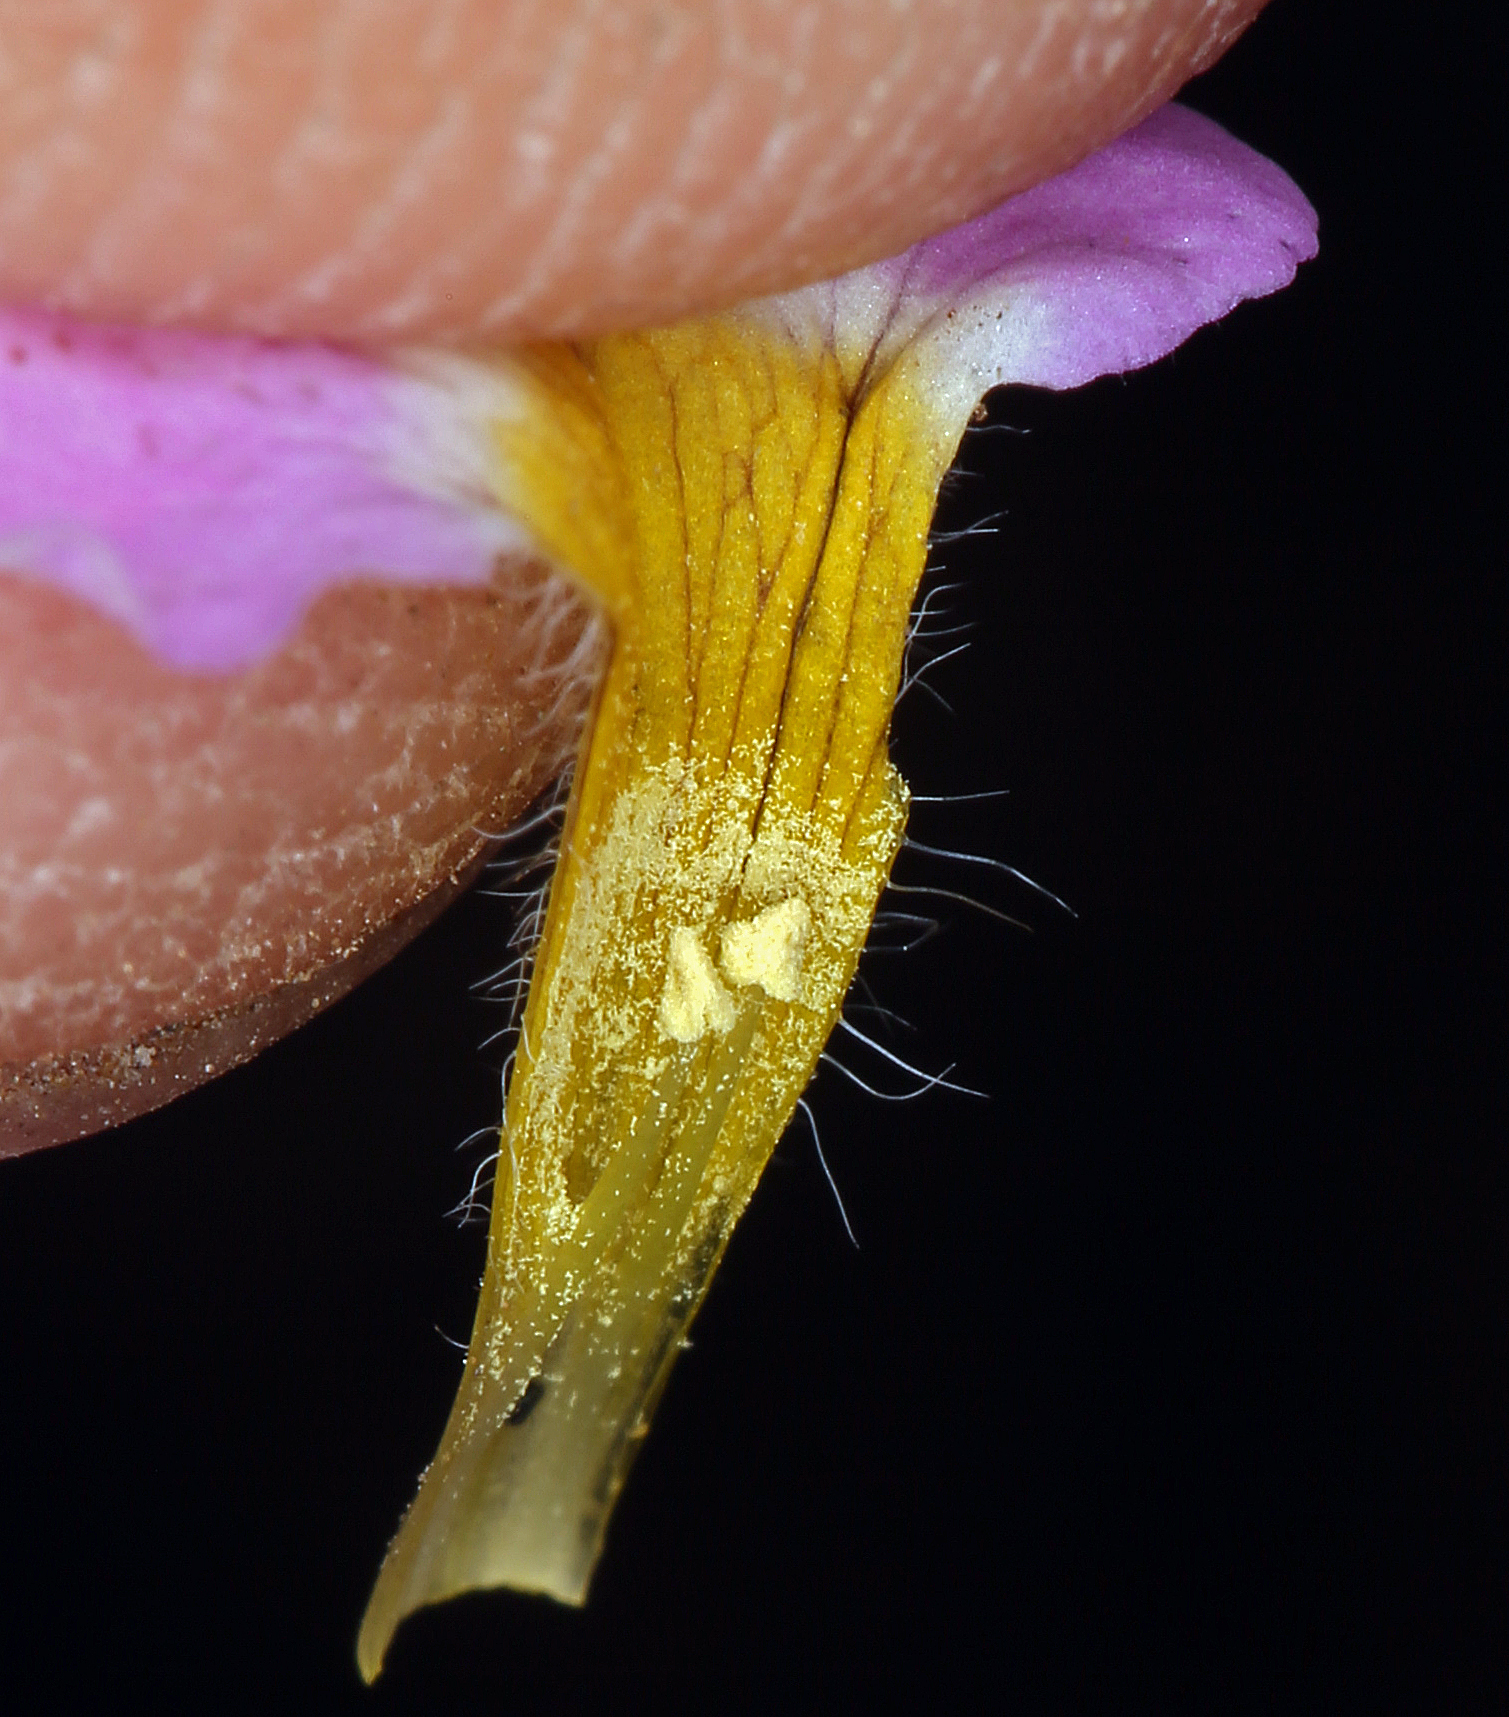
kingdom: Plantae
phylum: Tracheophyta
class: Magnoliopsida
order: Boraginales
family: Namaceae
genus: Nama
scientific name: Nama aretioides
